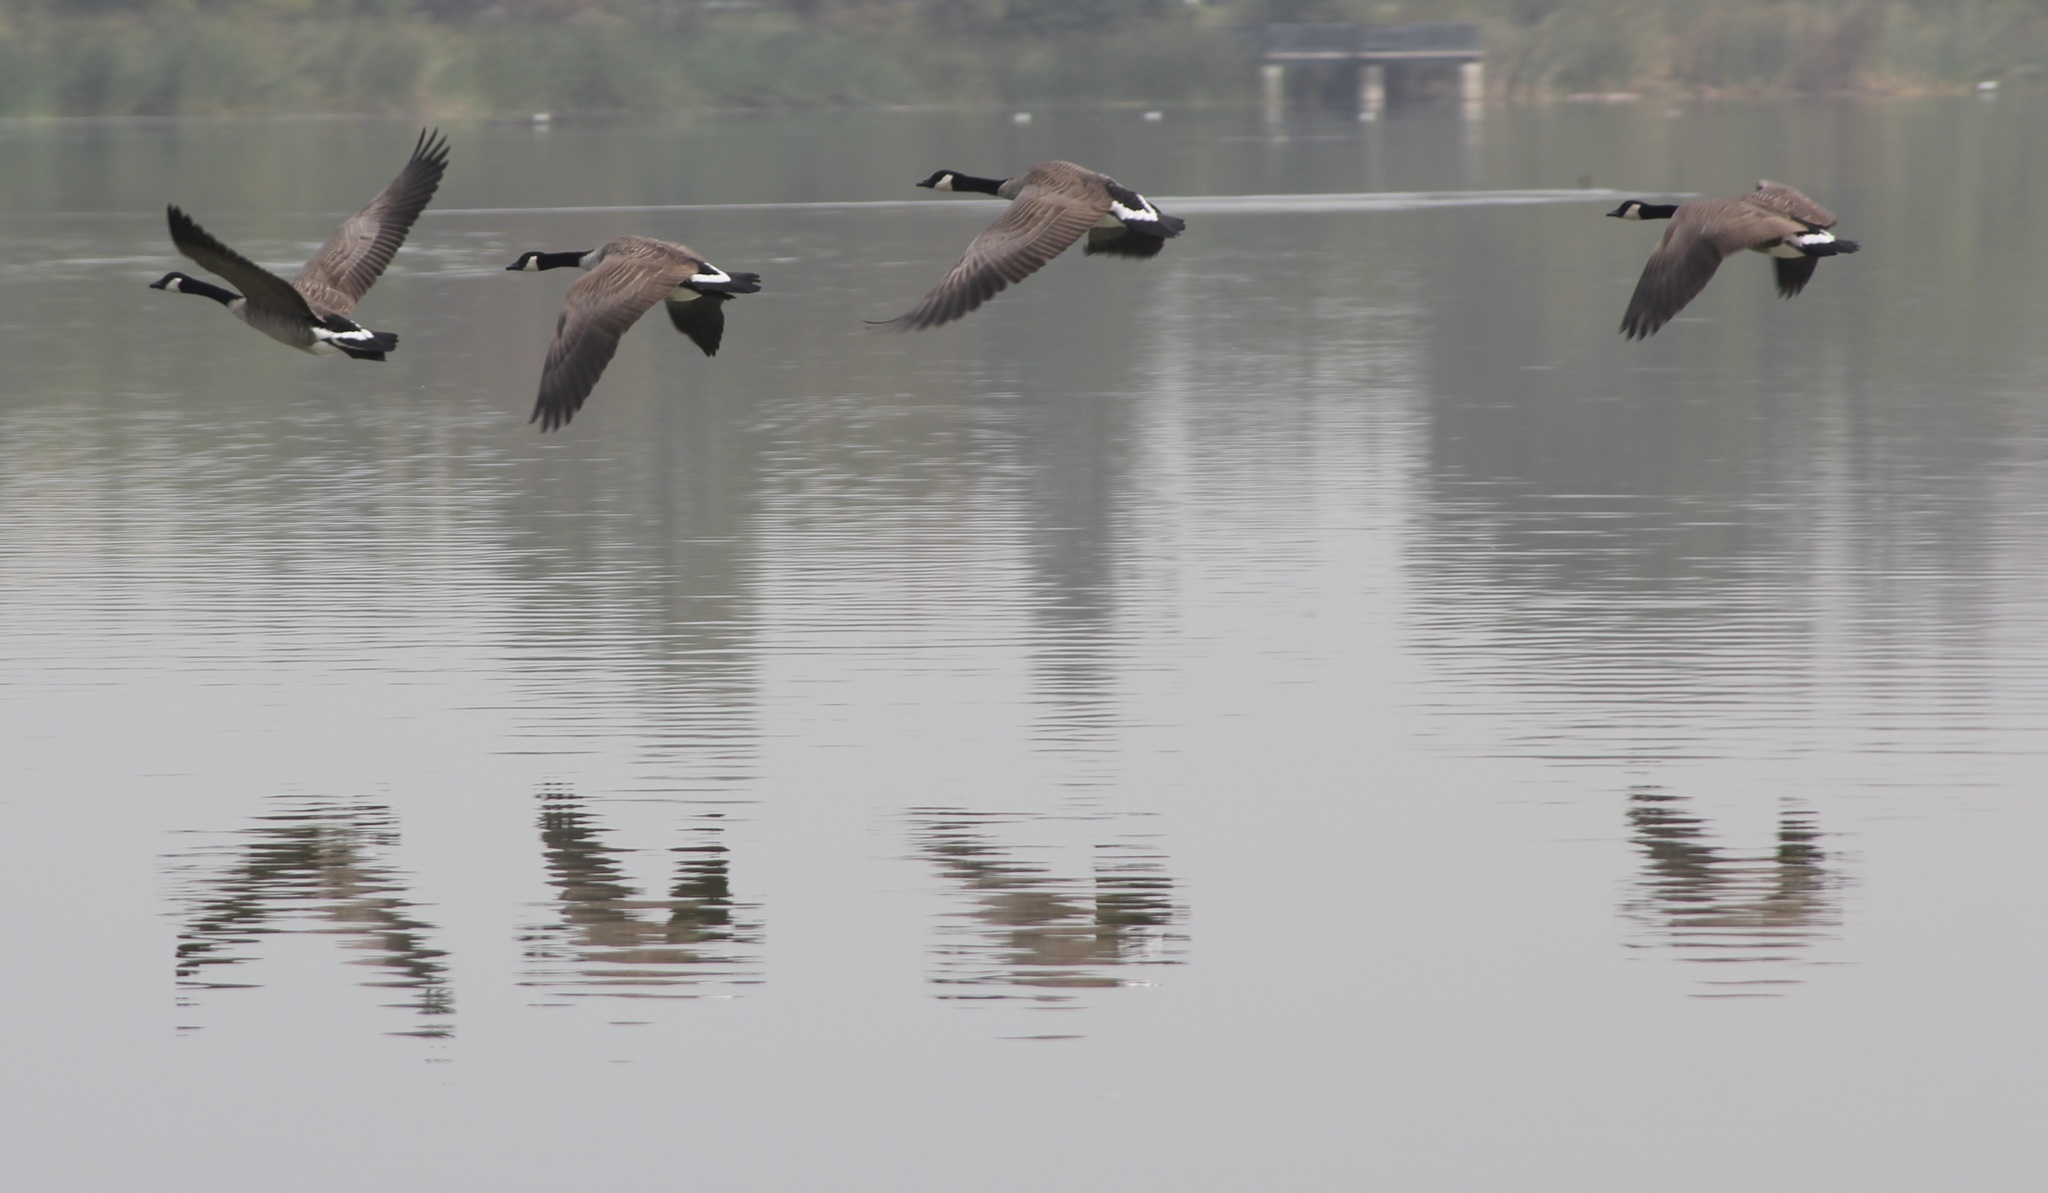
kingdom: Animalia
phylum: Chordata
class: Aves
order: Anseriformes
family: Anatidae
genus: Branta
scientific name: Branta canadensis
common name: Canada goose
